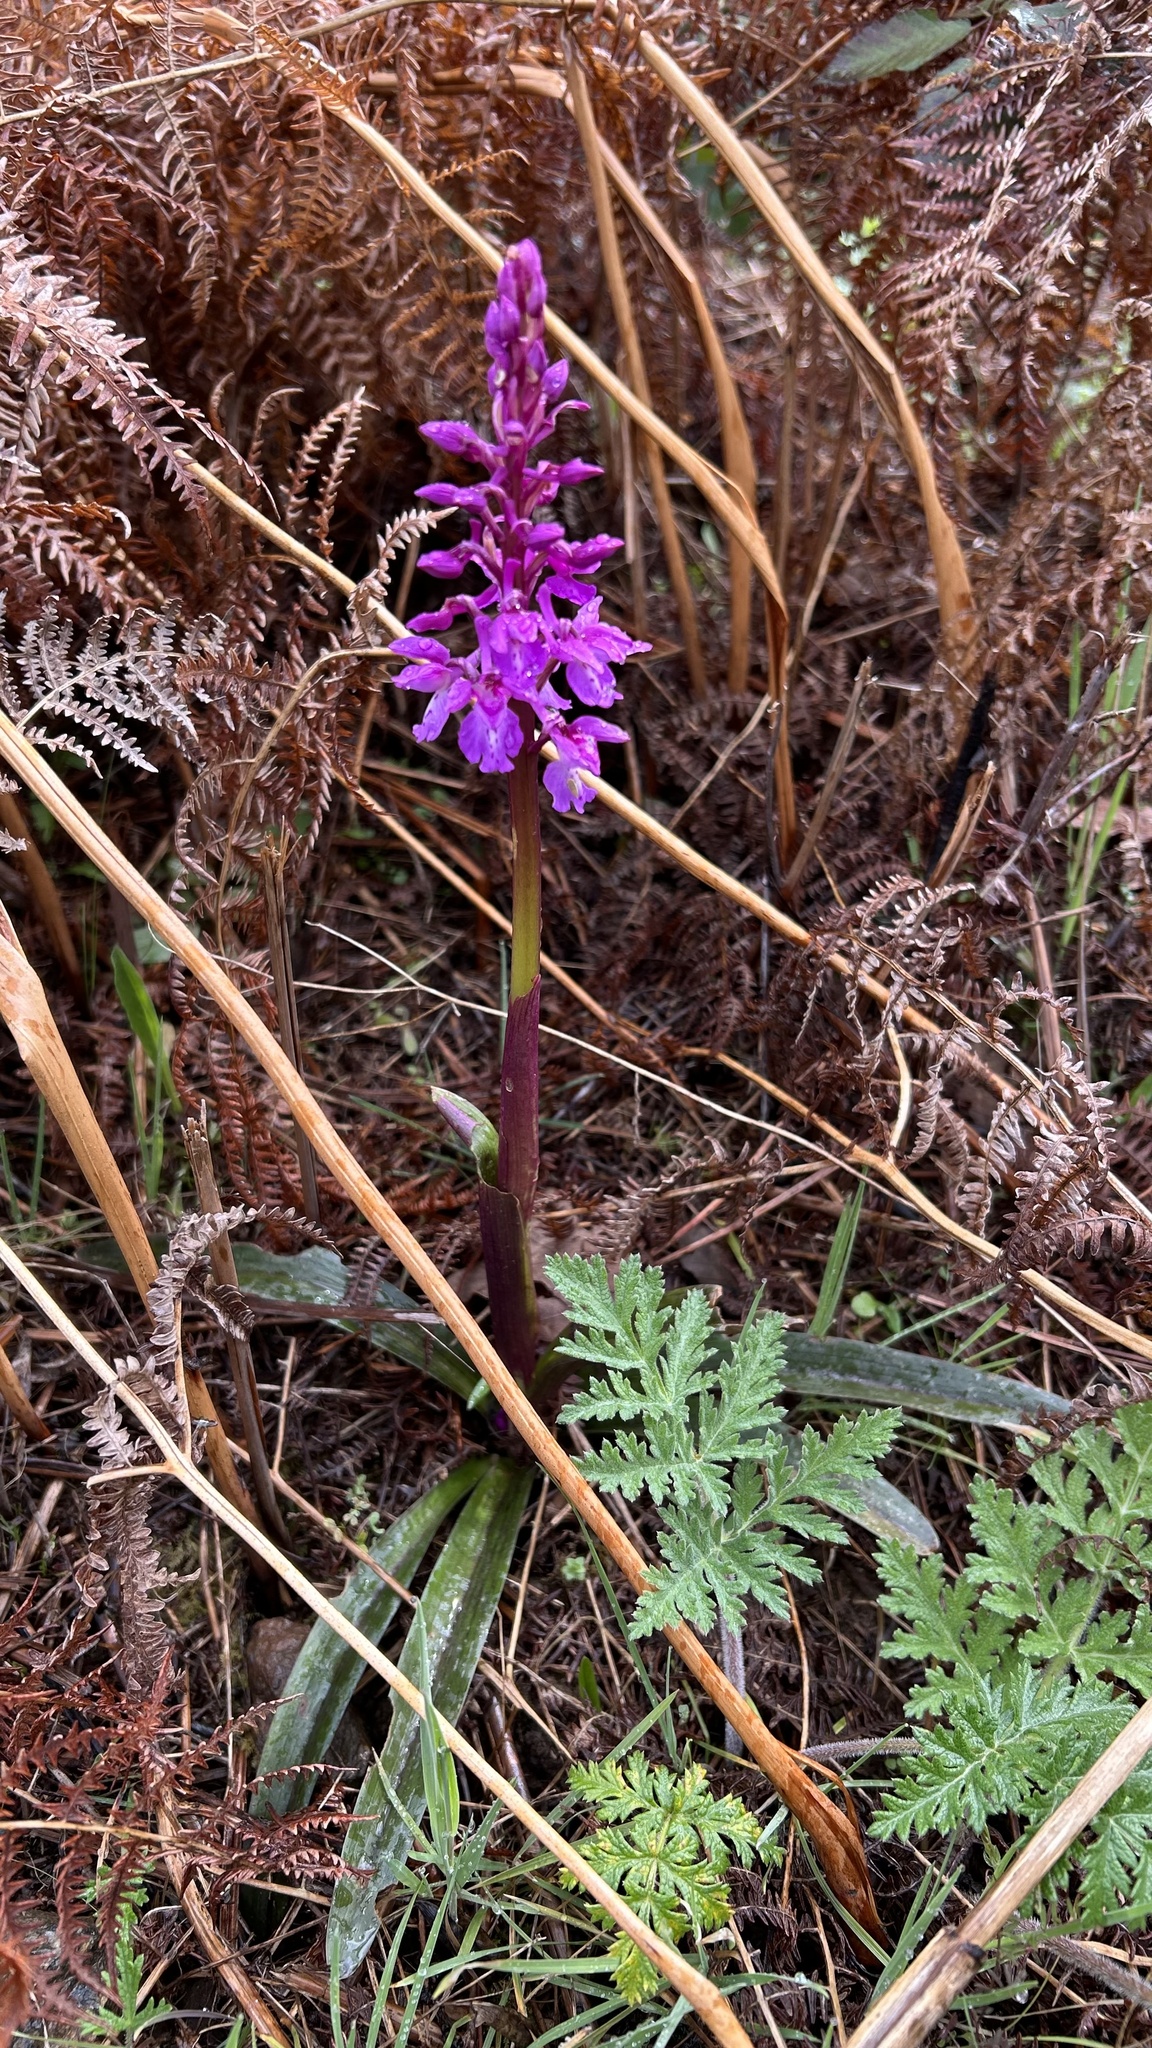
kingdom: Plantae
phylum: Tracheophyta
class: Liliopsida
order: Asparagales
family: Orchidaceae
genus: Orchis
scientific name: Orchis mascula
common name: Early-purple orchid
